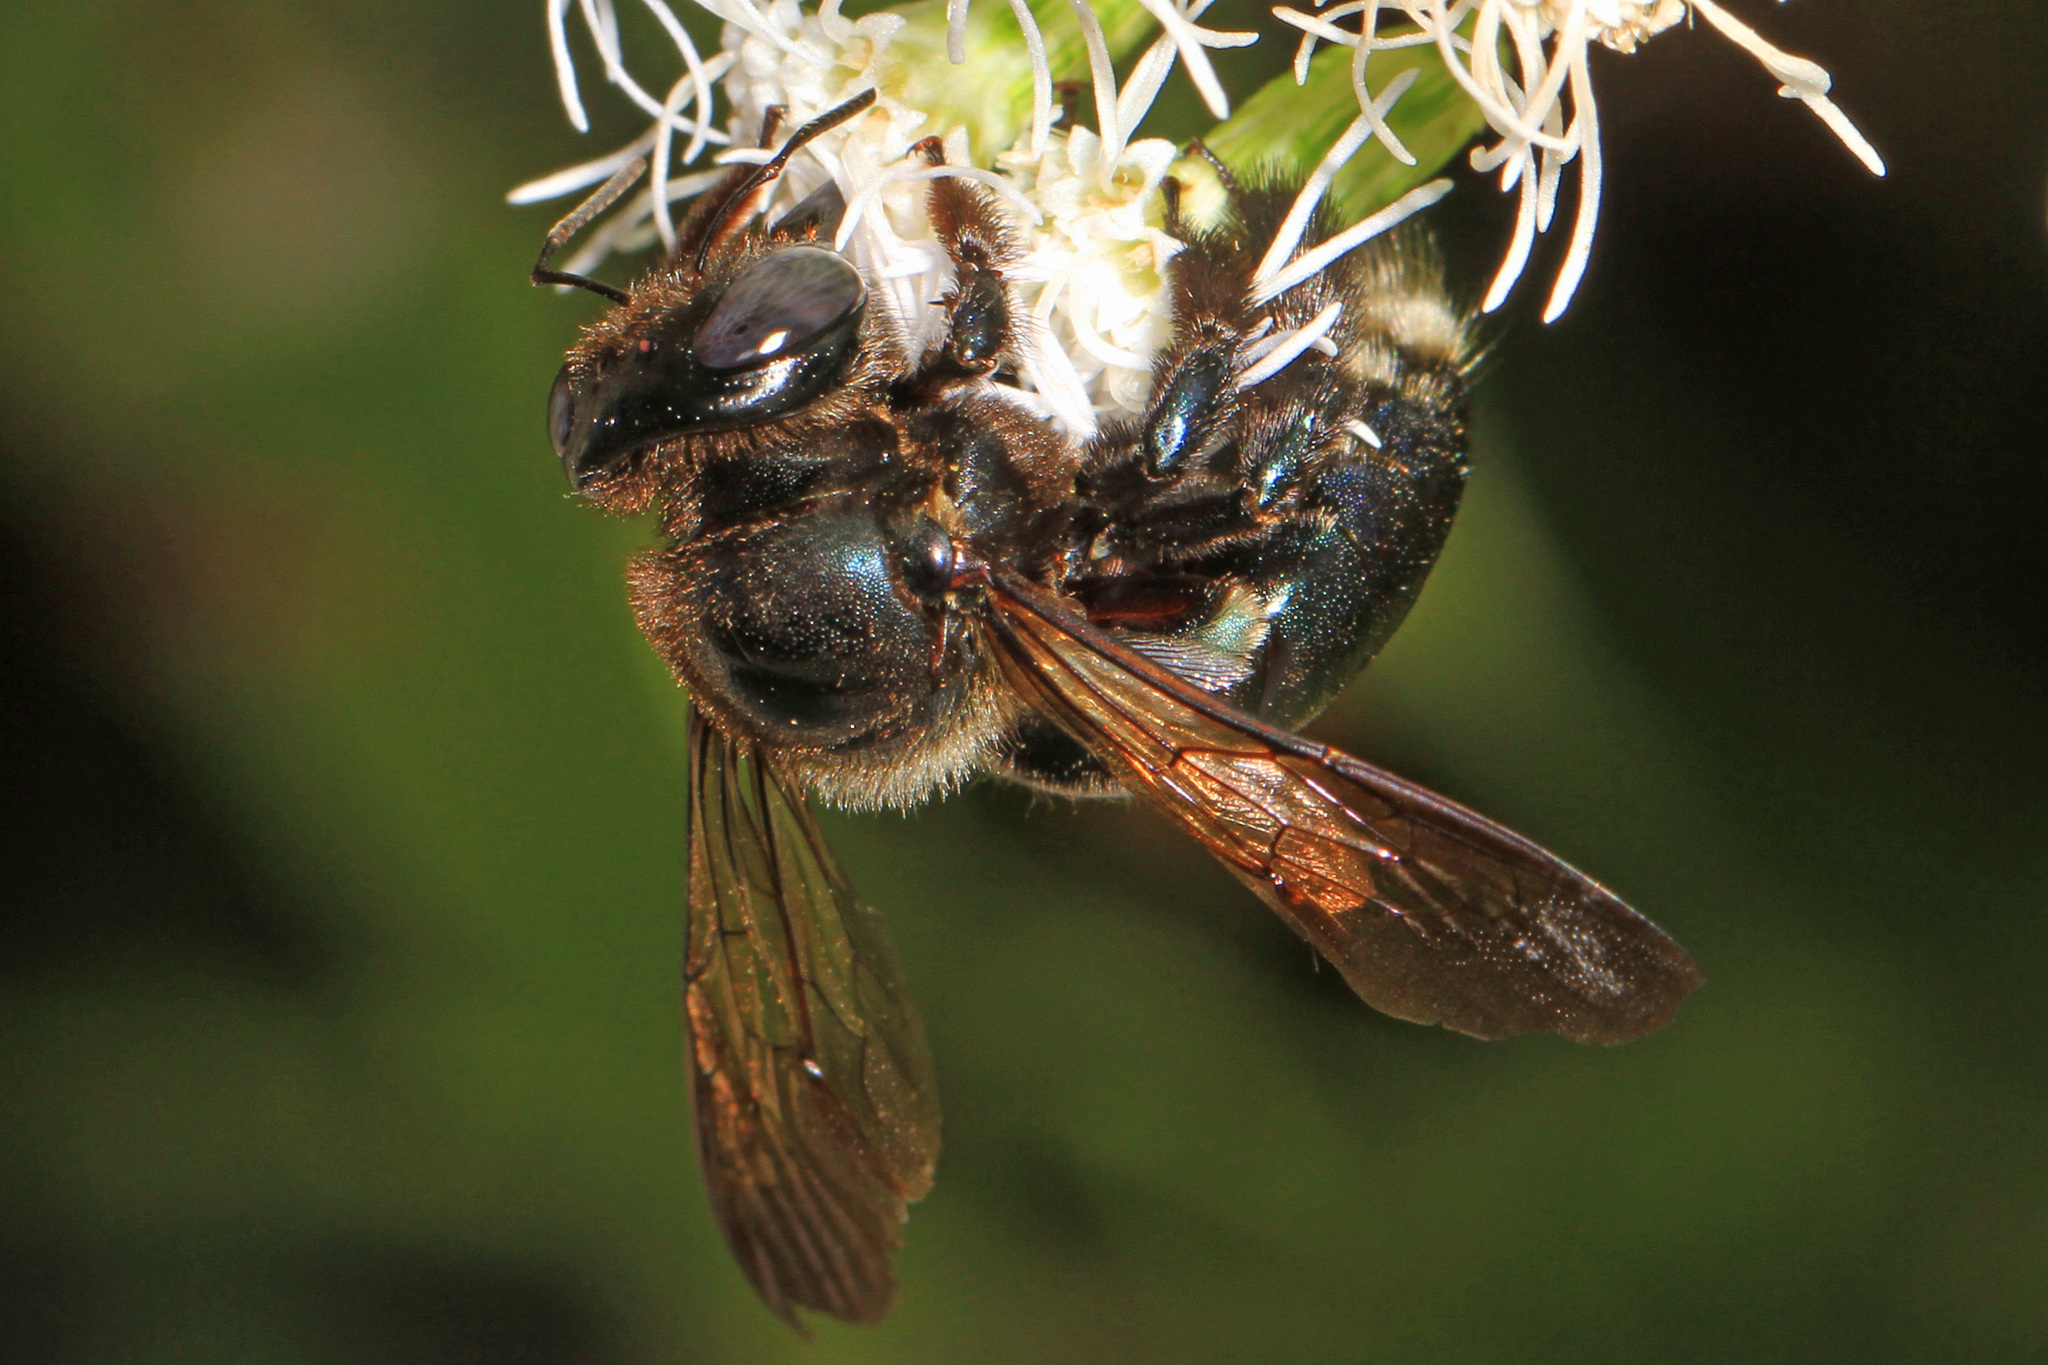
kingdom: Animalia
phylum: Arthropoda
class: Insecta
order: Hymenoptera
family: Apidae
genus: Xylocopa
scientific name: Xylocopa micans
